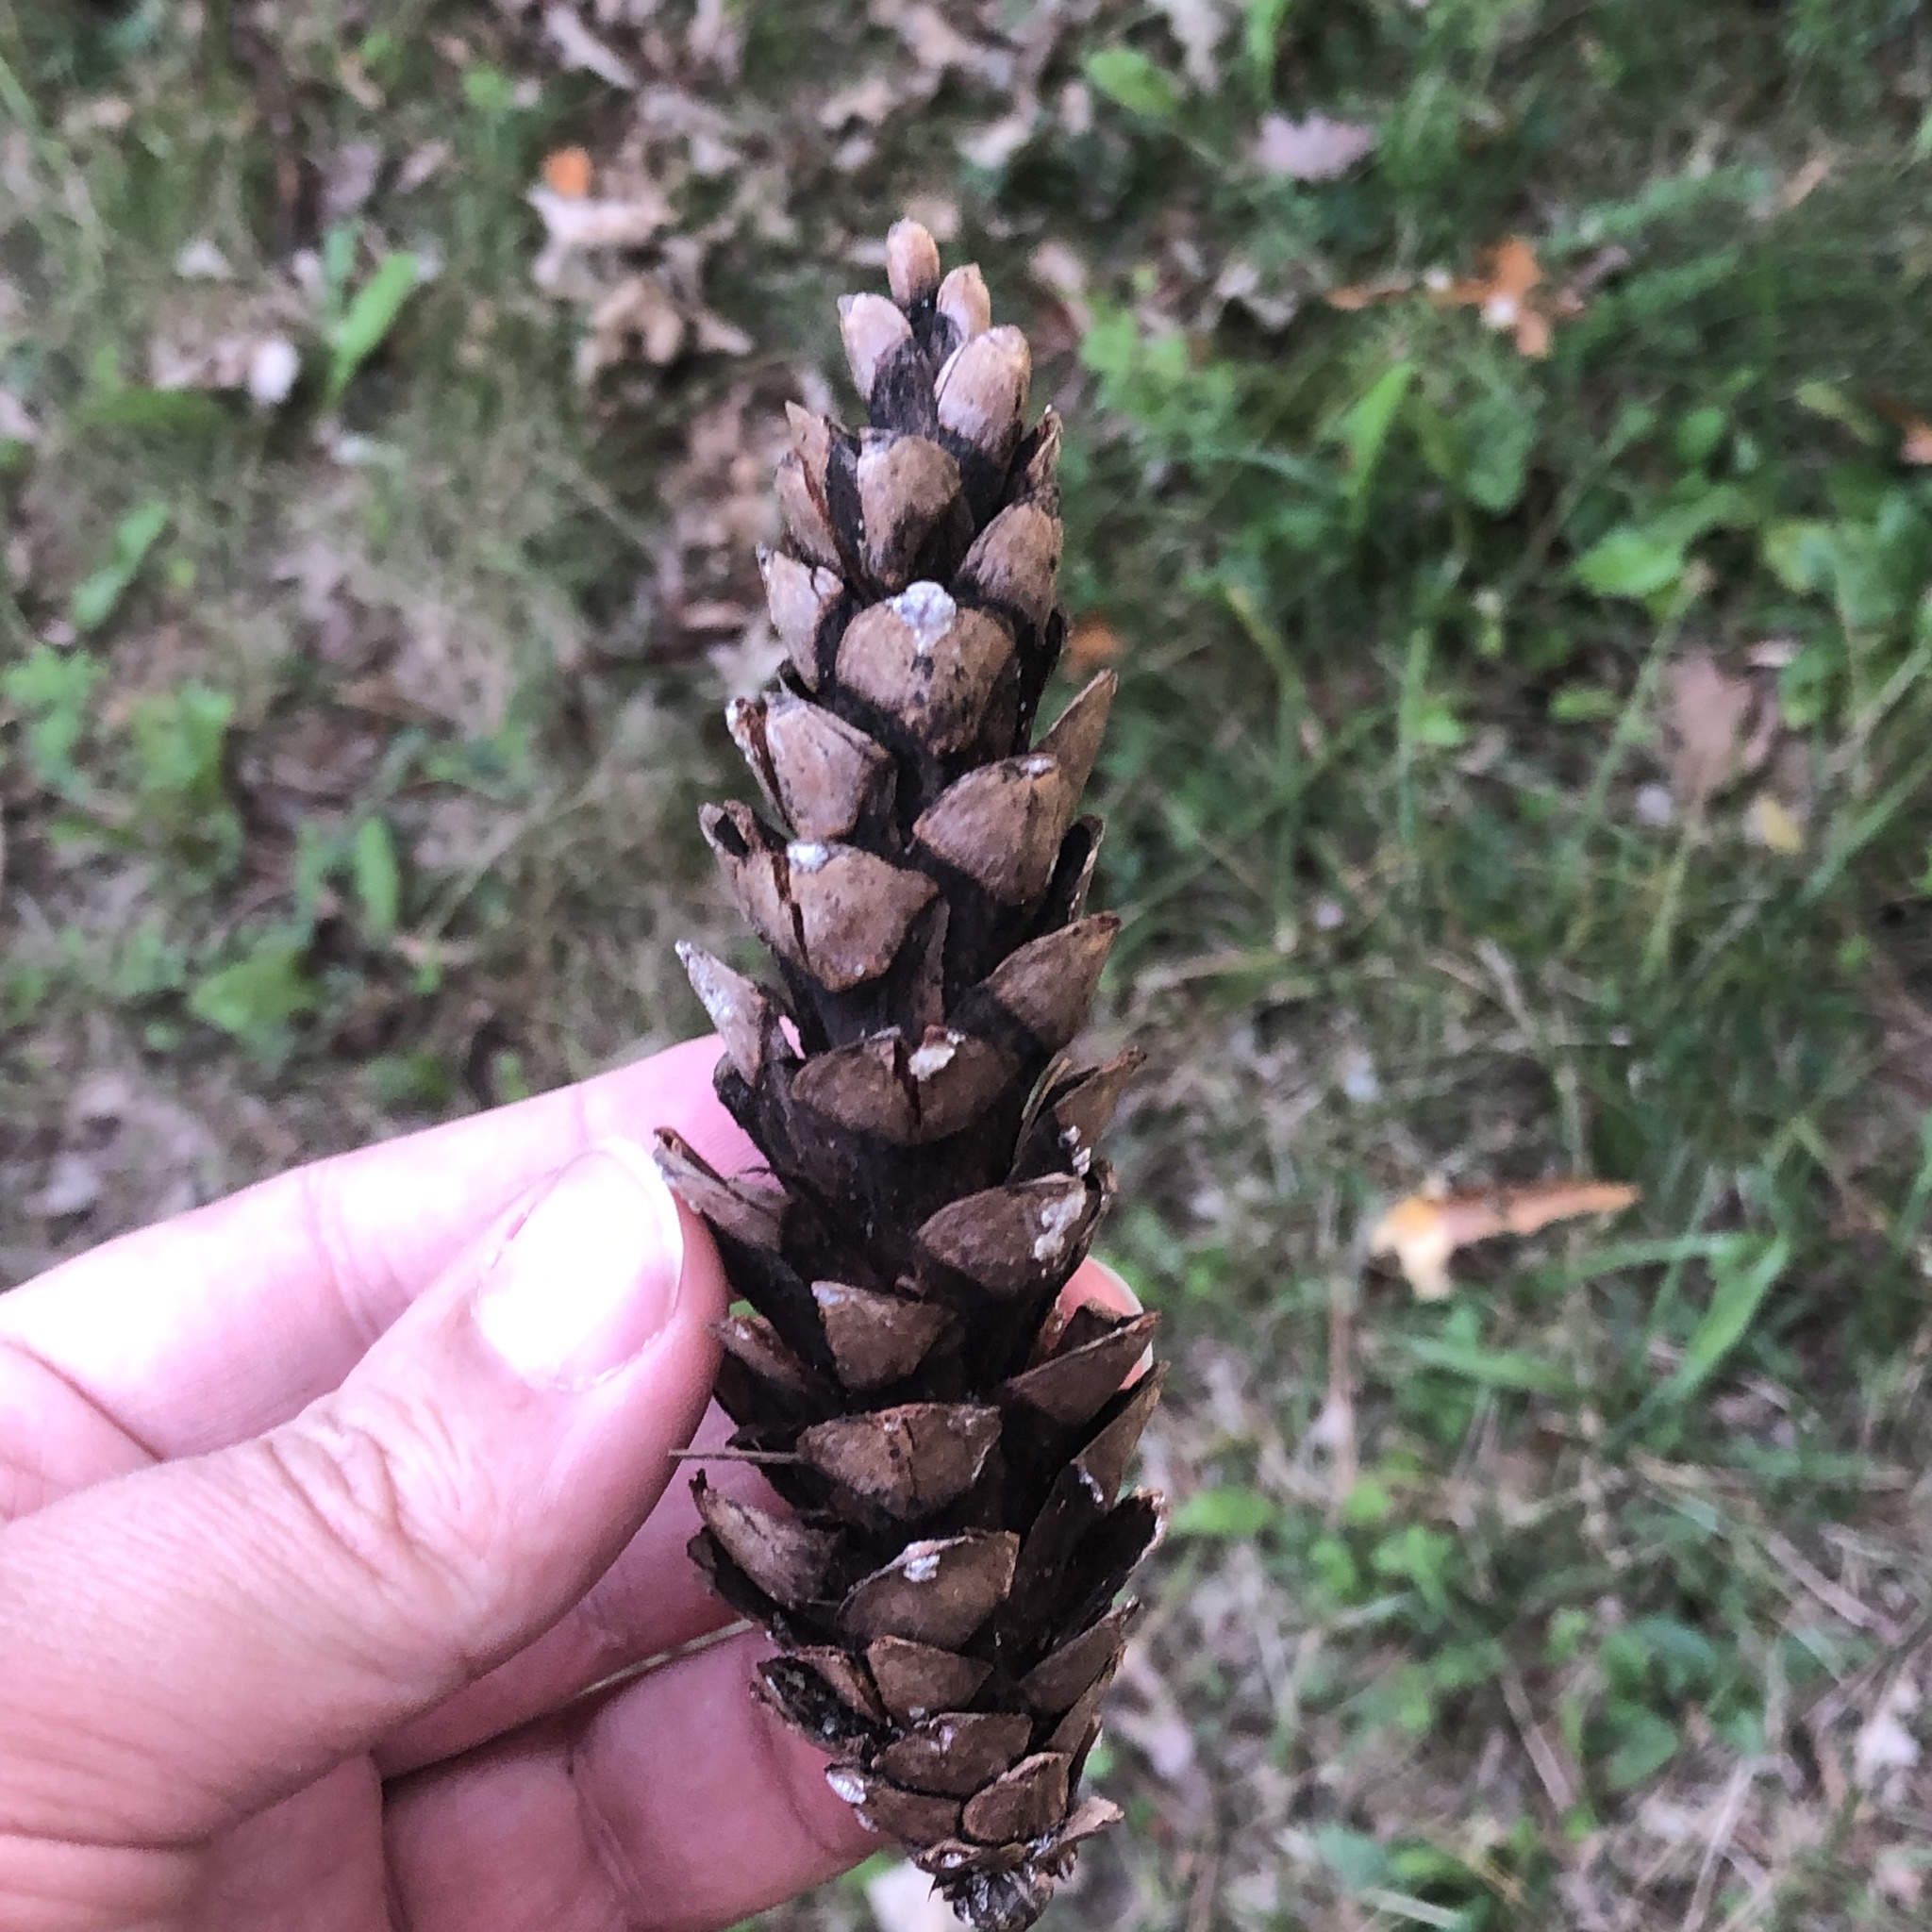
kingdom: Plantae
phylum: Tracheophyta
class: Pinopsida
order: Pinales
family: Pinaceae
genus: Pinus
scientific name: Pinus strobus
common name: Weymouth pine
